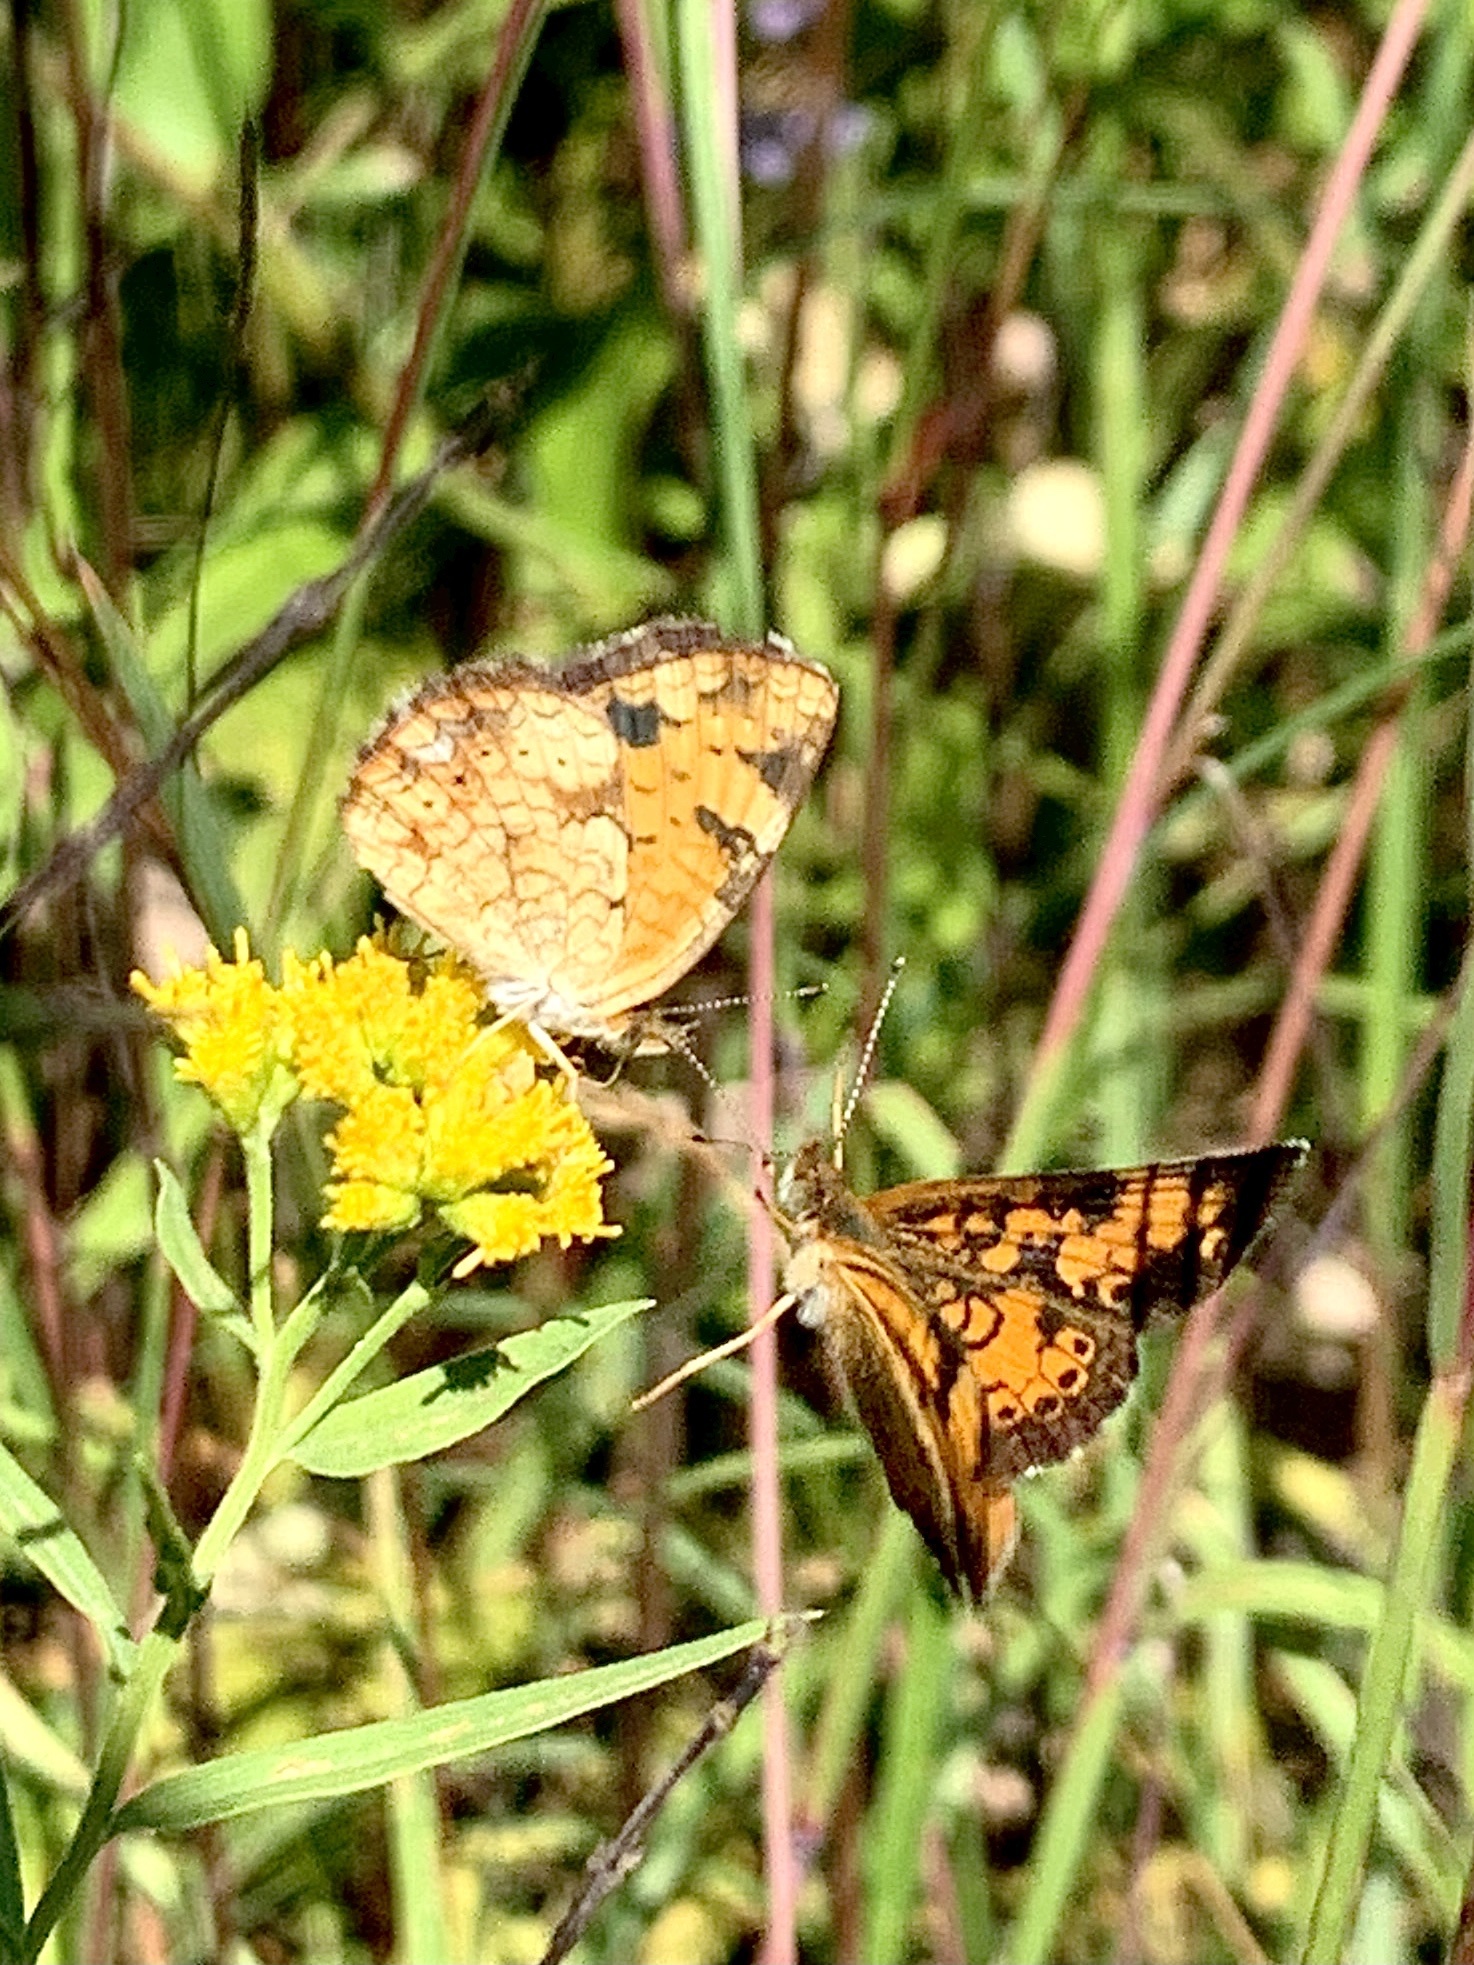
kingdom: Animalia
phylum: Arthropoda
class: Insecta
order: Lepidoptera
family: Nymphalidae
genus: Phyciodes
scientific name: Phyciodes tharos
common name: Pearl crescent
